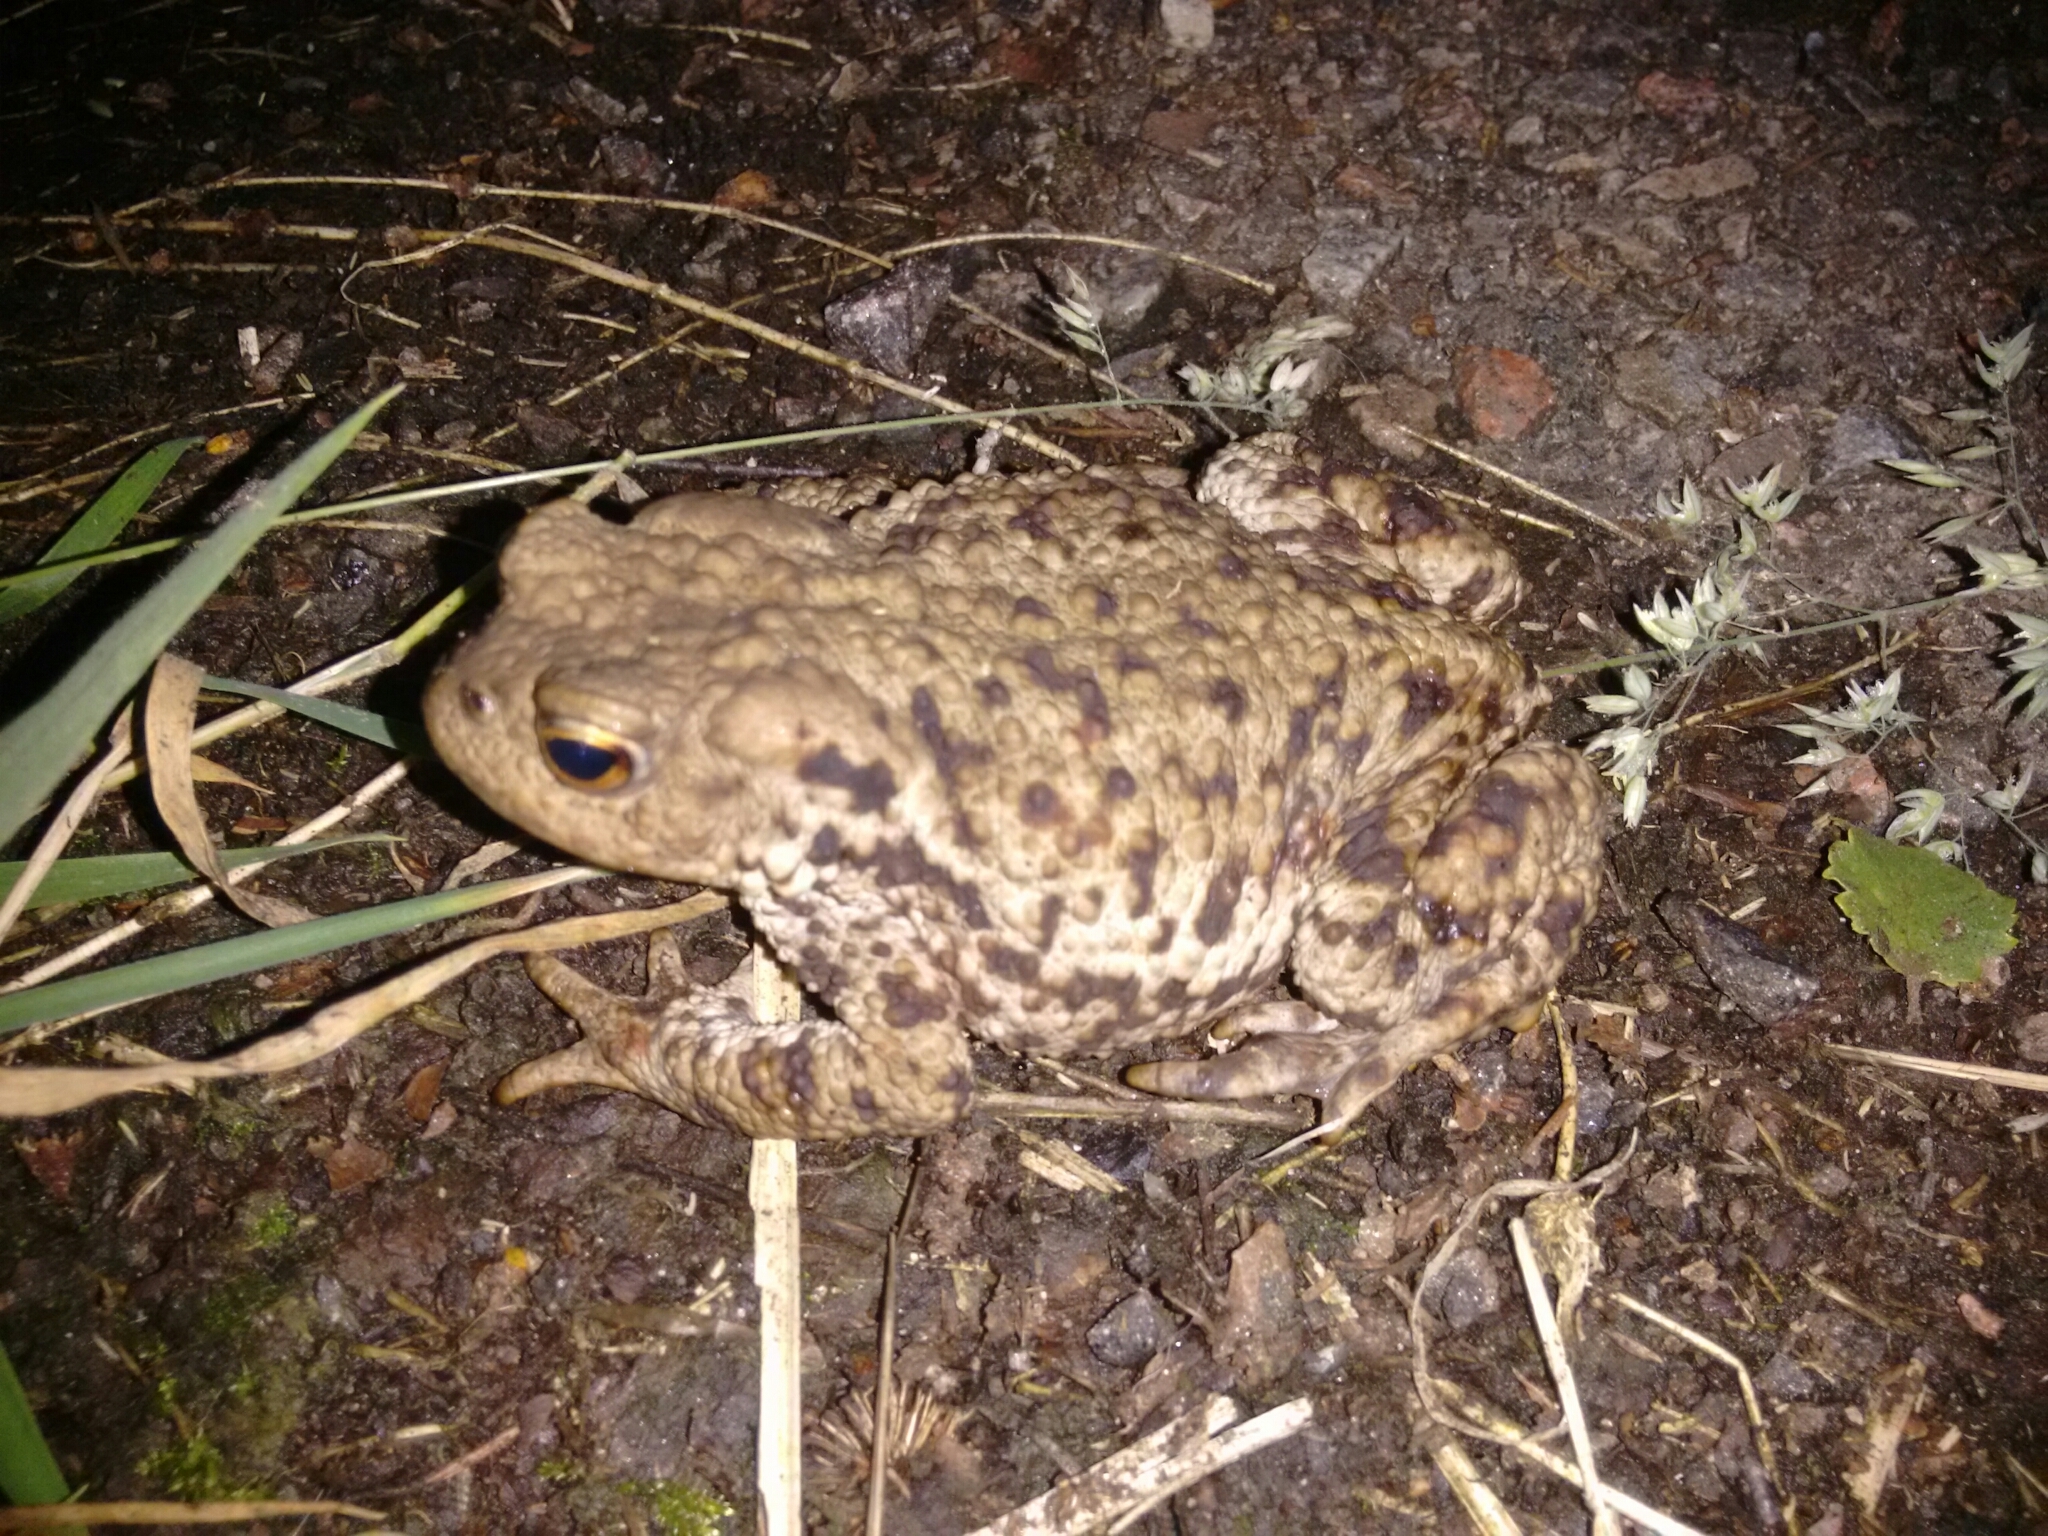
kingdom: Animalia
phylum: Chordata
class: Amphibia
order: Anura
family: Bufonidae
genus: Bufo
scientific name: Bufo bufo
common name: Common toad
